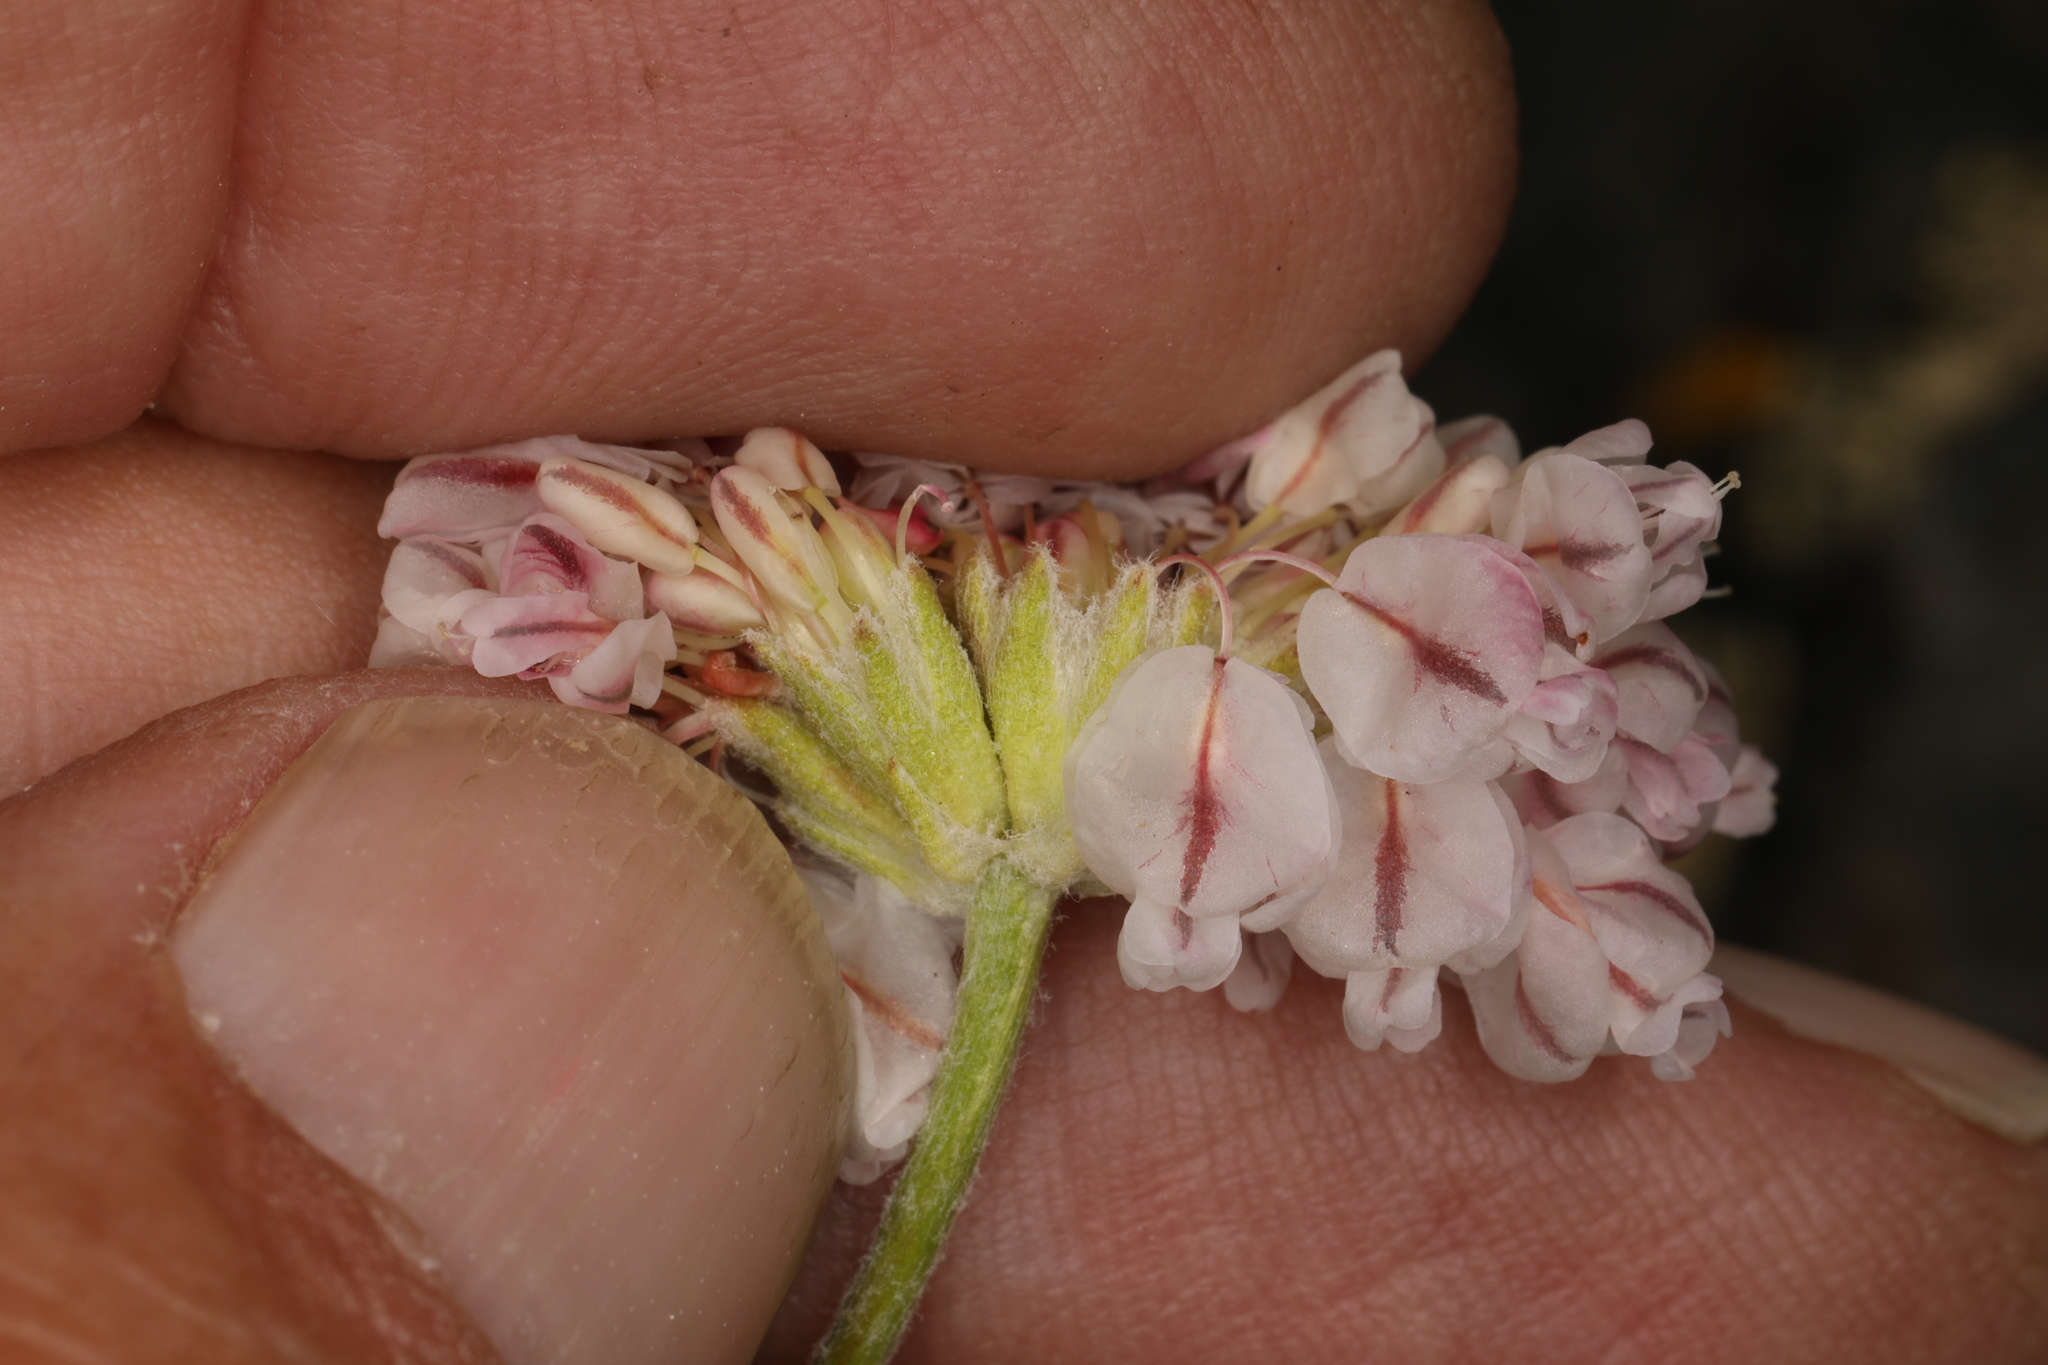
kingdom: Plantae
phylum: Tracheophyta
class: Magnoliopsida
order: Caryophyllales
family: Polygonaceae
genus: Eriogonum
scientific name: Eriogonum ovalifolium
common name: Cushion buckwheat
